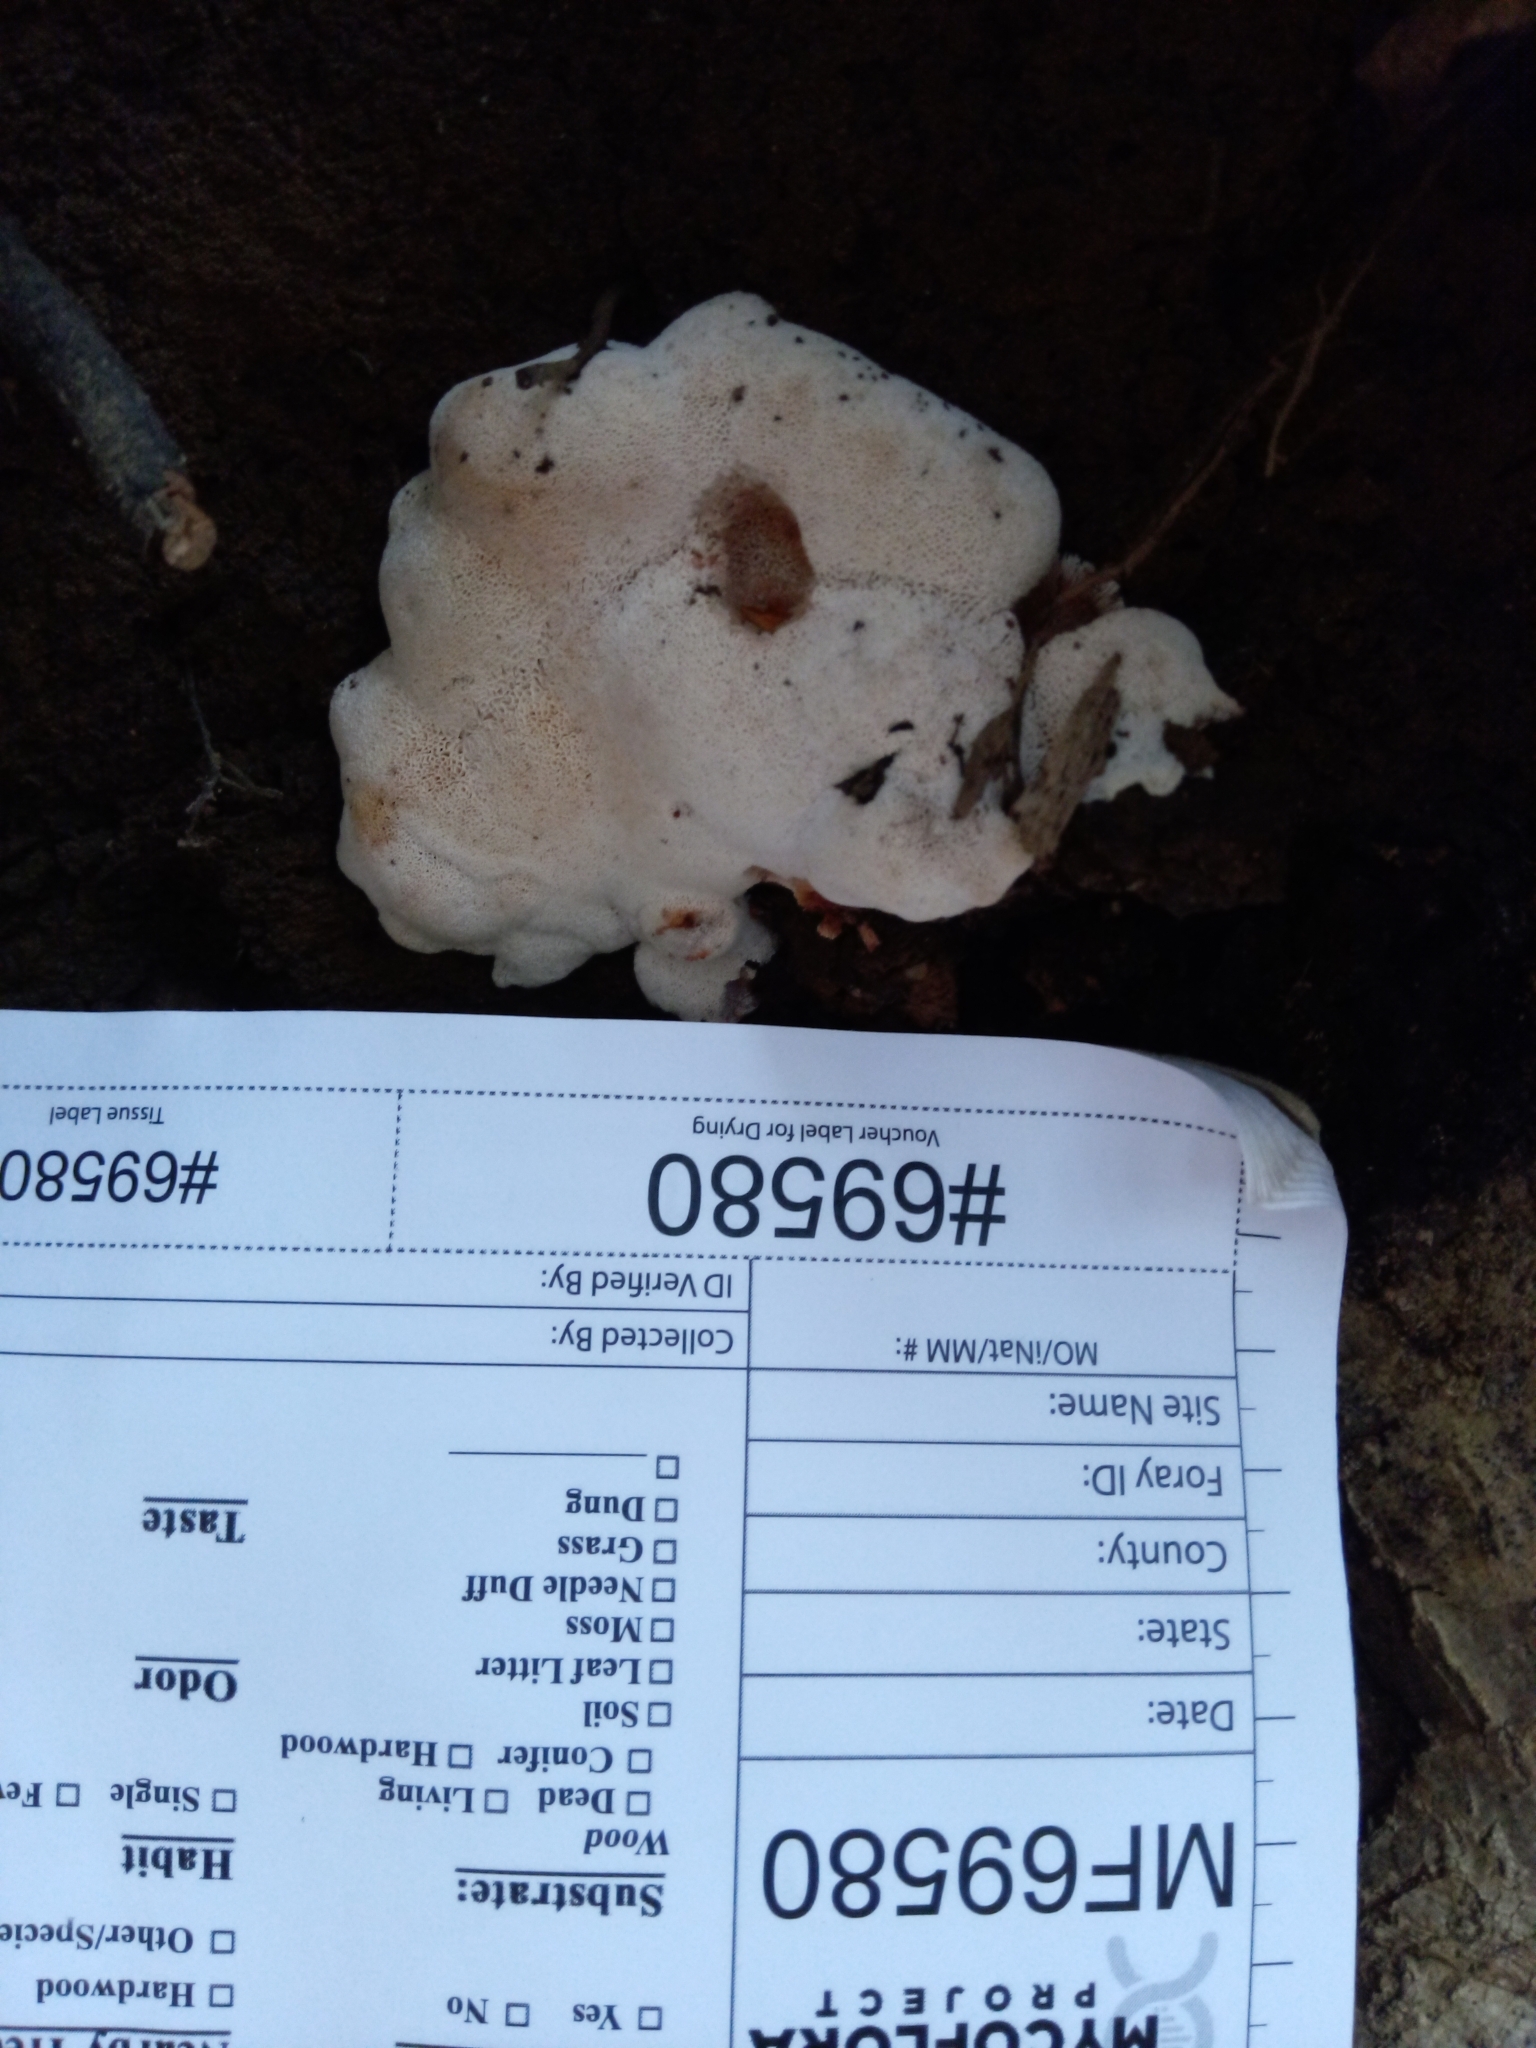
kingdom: Fungi
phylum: Basidiomycota
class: Agaricomycetes
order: Polyporales
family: Podoscyphaceae
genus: Abortiporus
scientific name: Abortiporus biennis
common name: Blushing rosette
